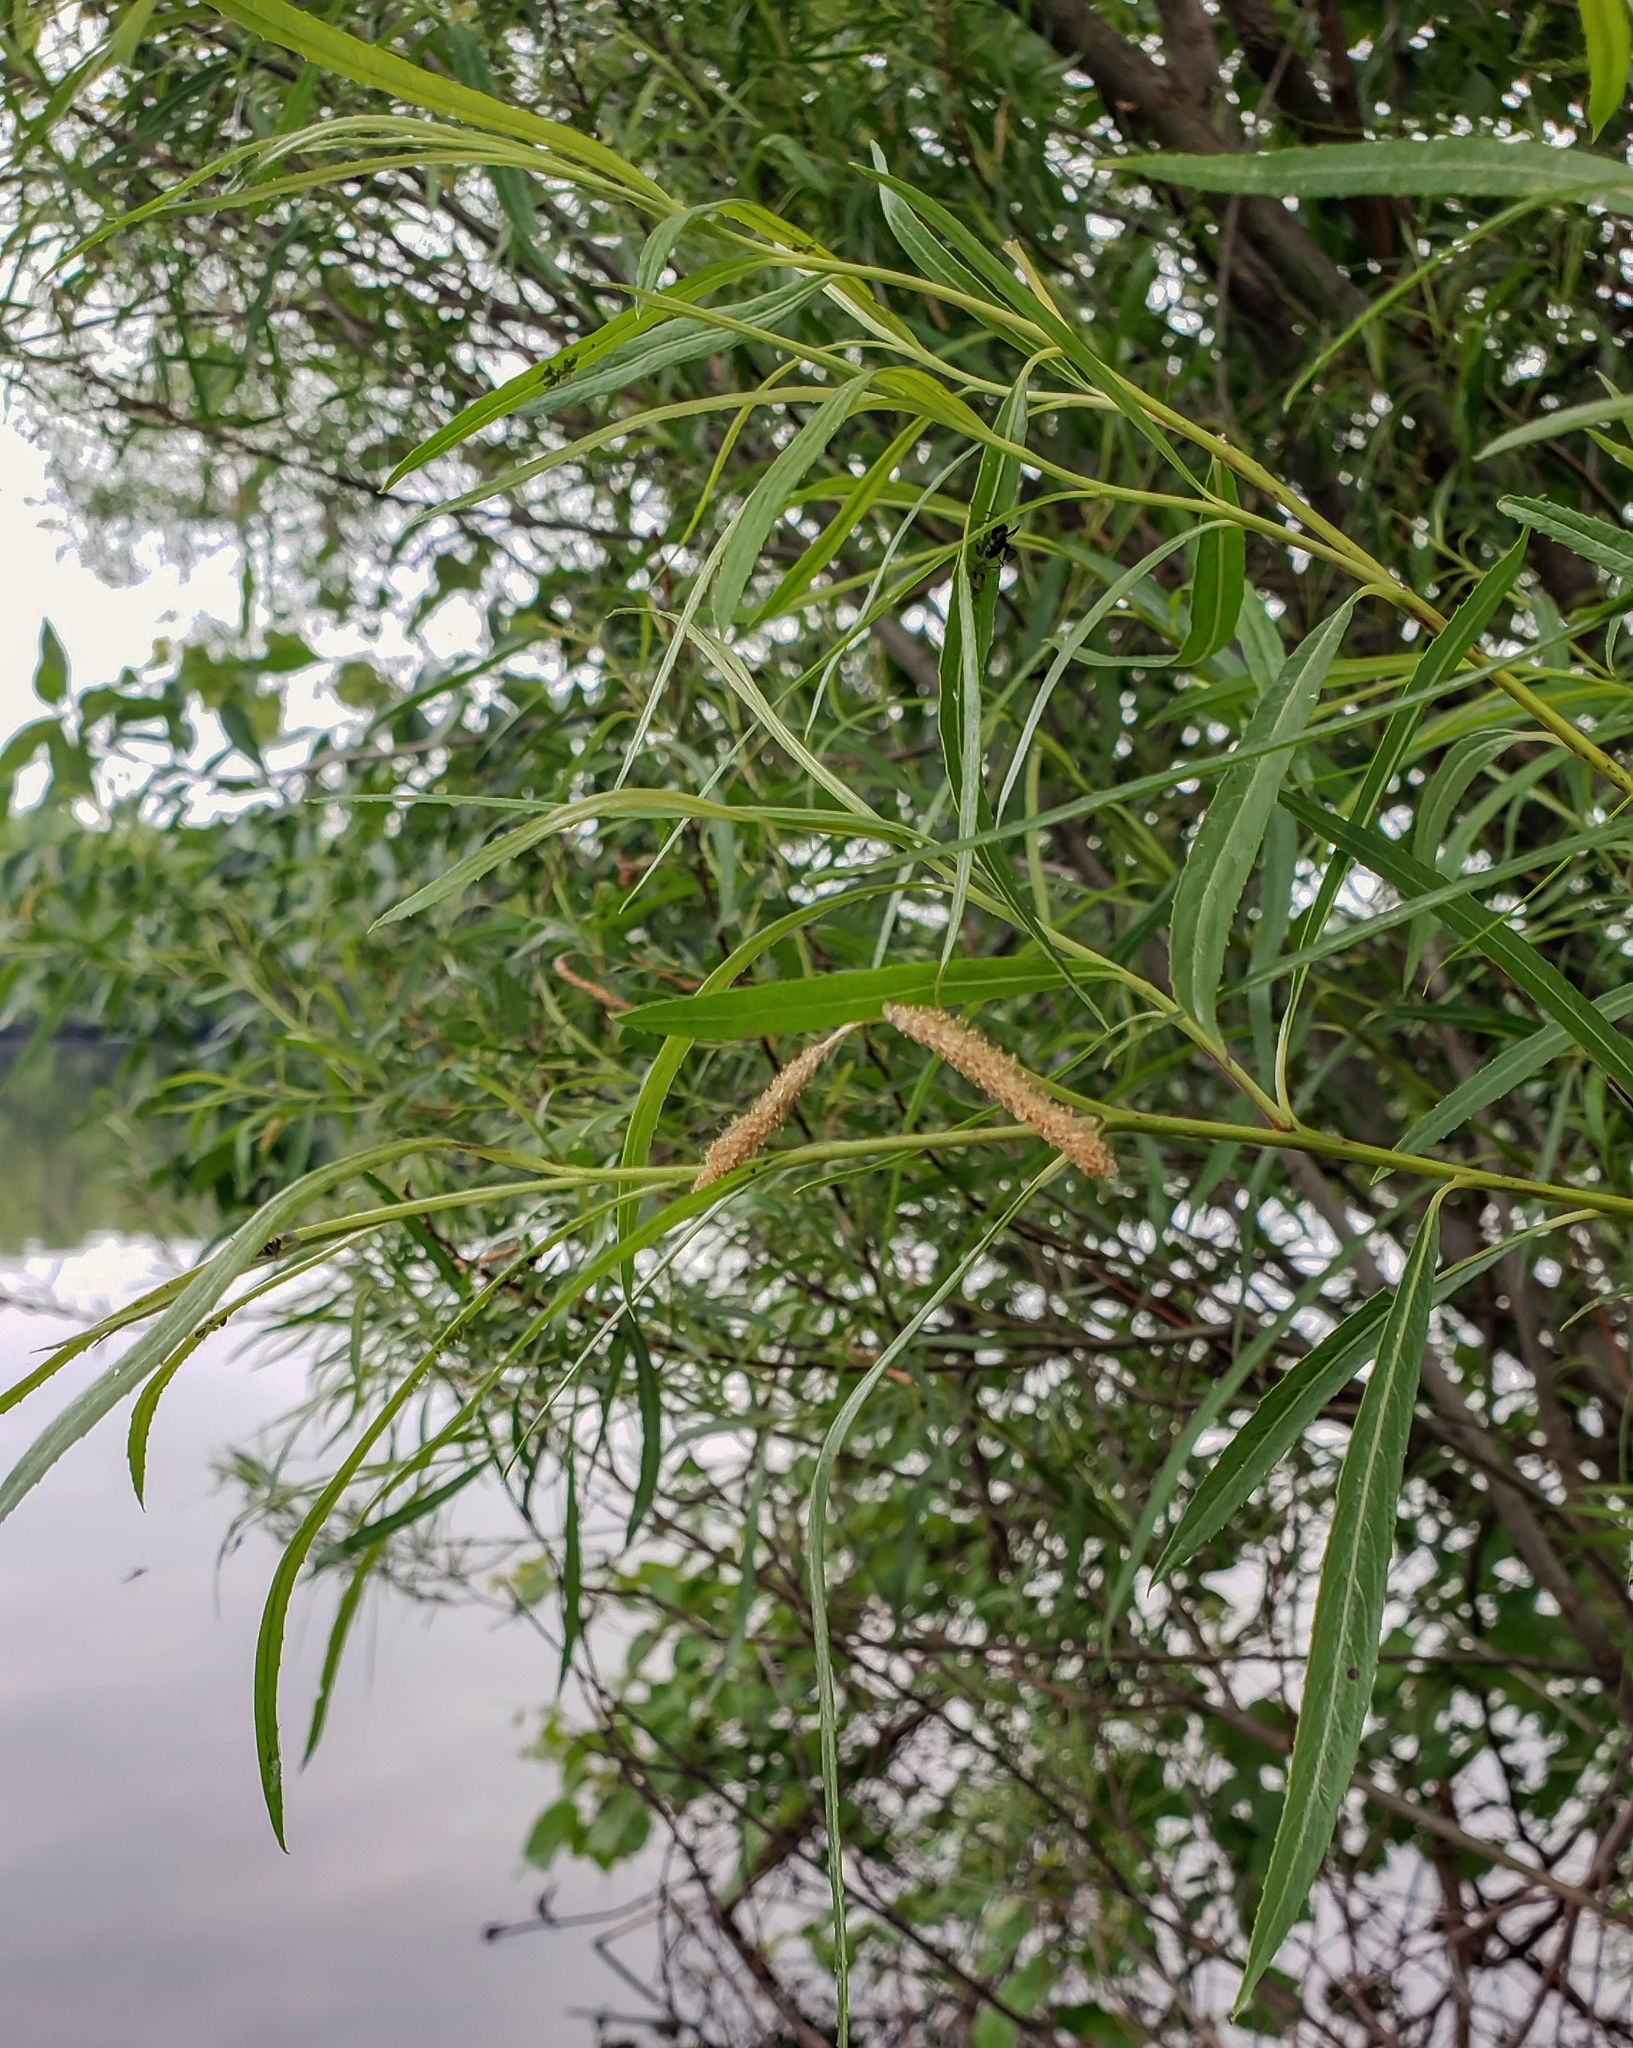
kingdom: Plantae
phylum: Tracheophyta
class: Magnoliopsida
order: Malpighiales
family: Salicaceae
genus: Salix
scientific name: Salix interior
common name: Sandbar willow
